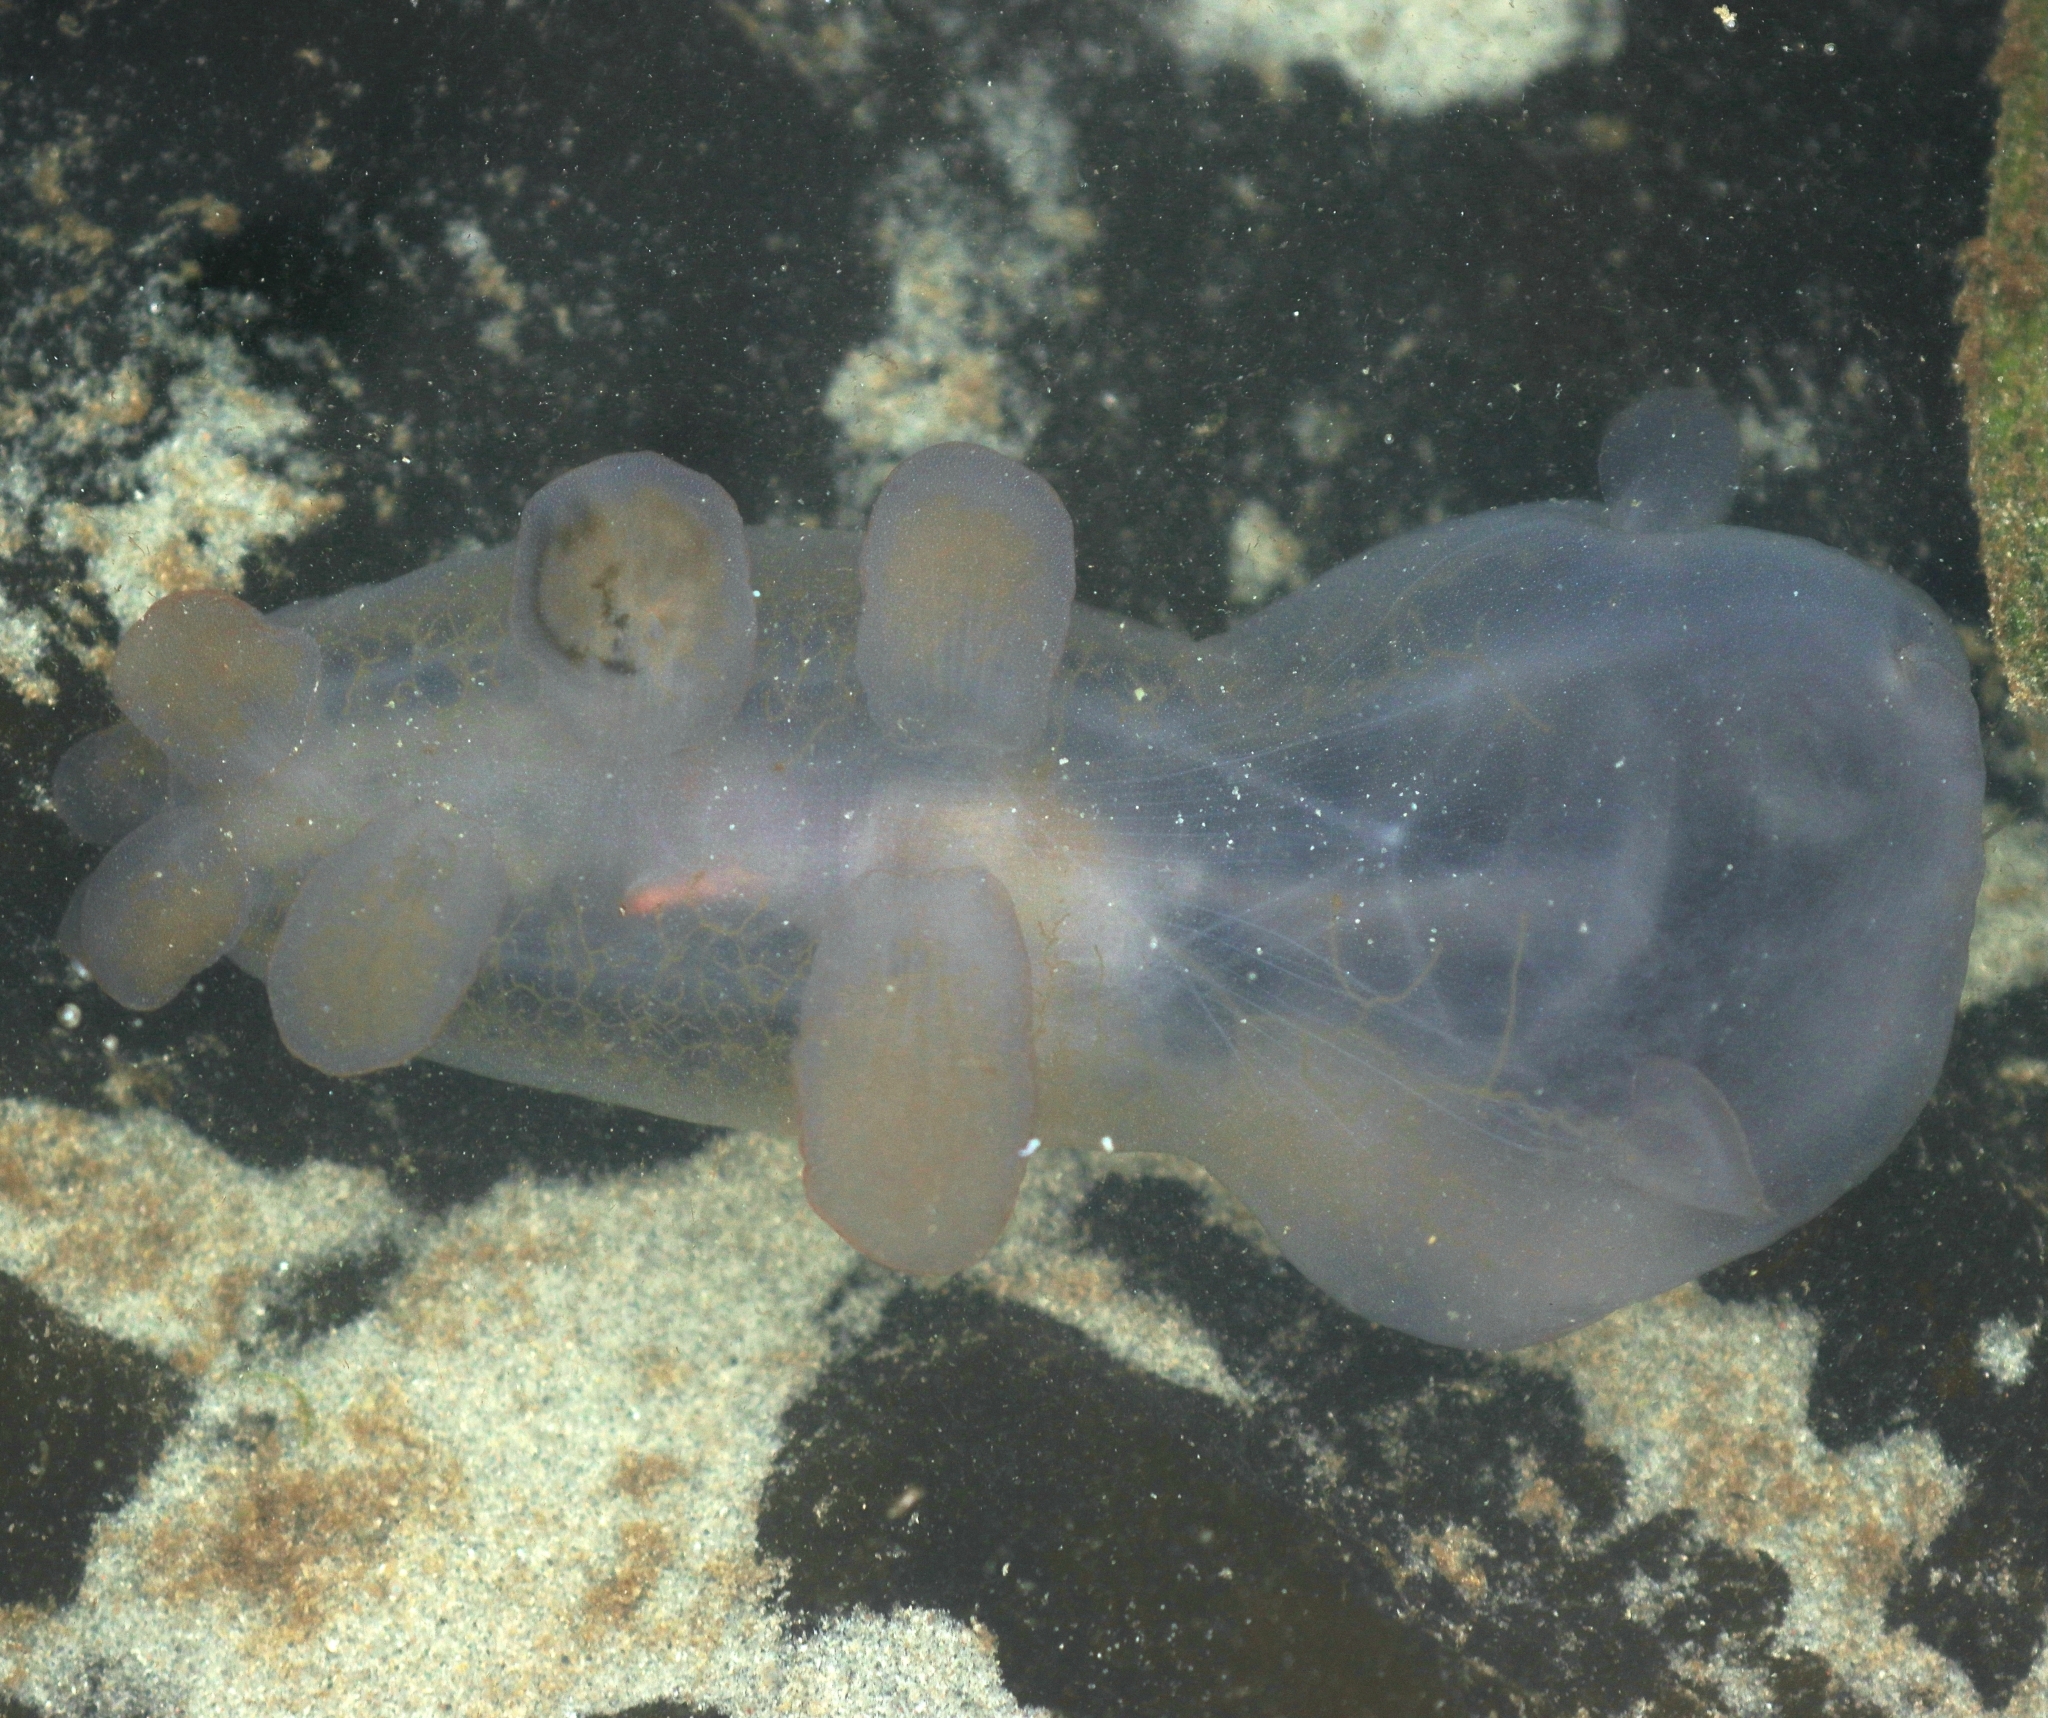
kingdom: Animalia
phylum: Mollusca
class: Gastropoda
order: Nudibranchia
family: Tethydidae
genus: Melibe
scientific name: Melibe leonina
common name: Lion nudibranch
